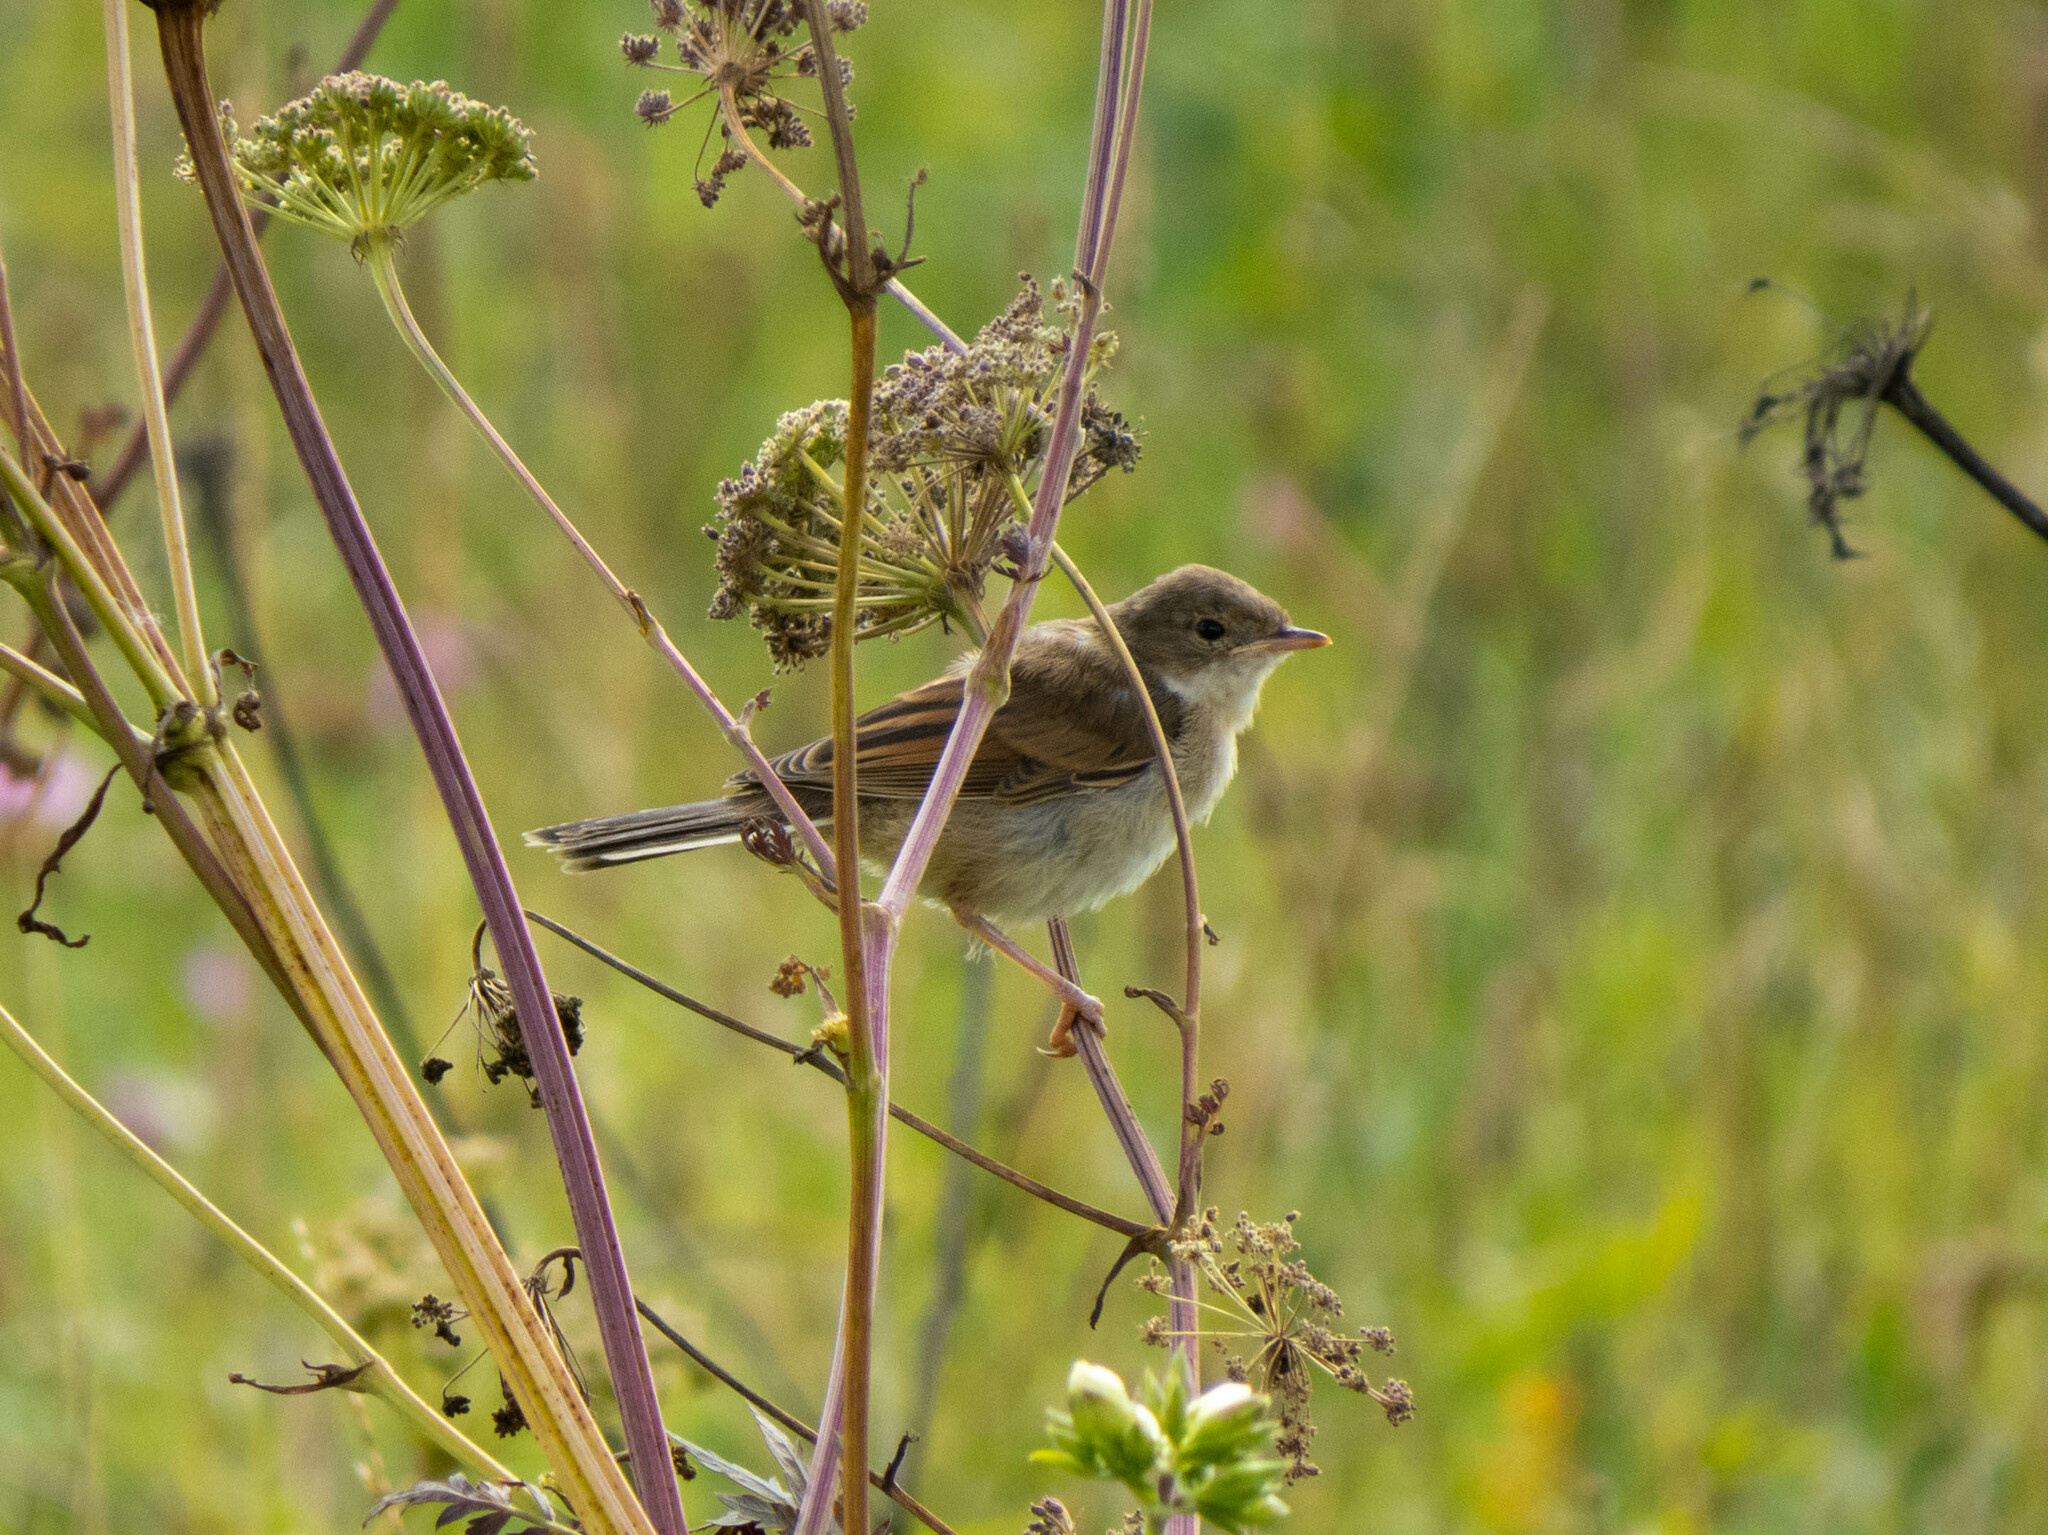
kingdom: Animalia
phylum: Chordata
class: Aves
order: Passeriformes
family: Sylviidae
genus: Sylvia
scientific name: Sylvia communis
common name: Common whitethroat
